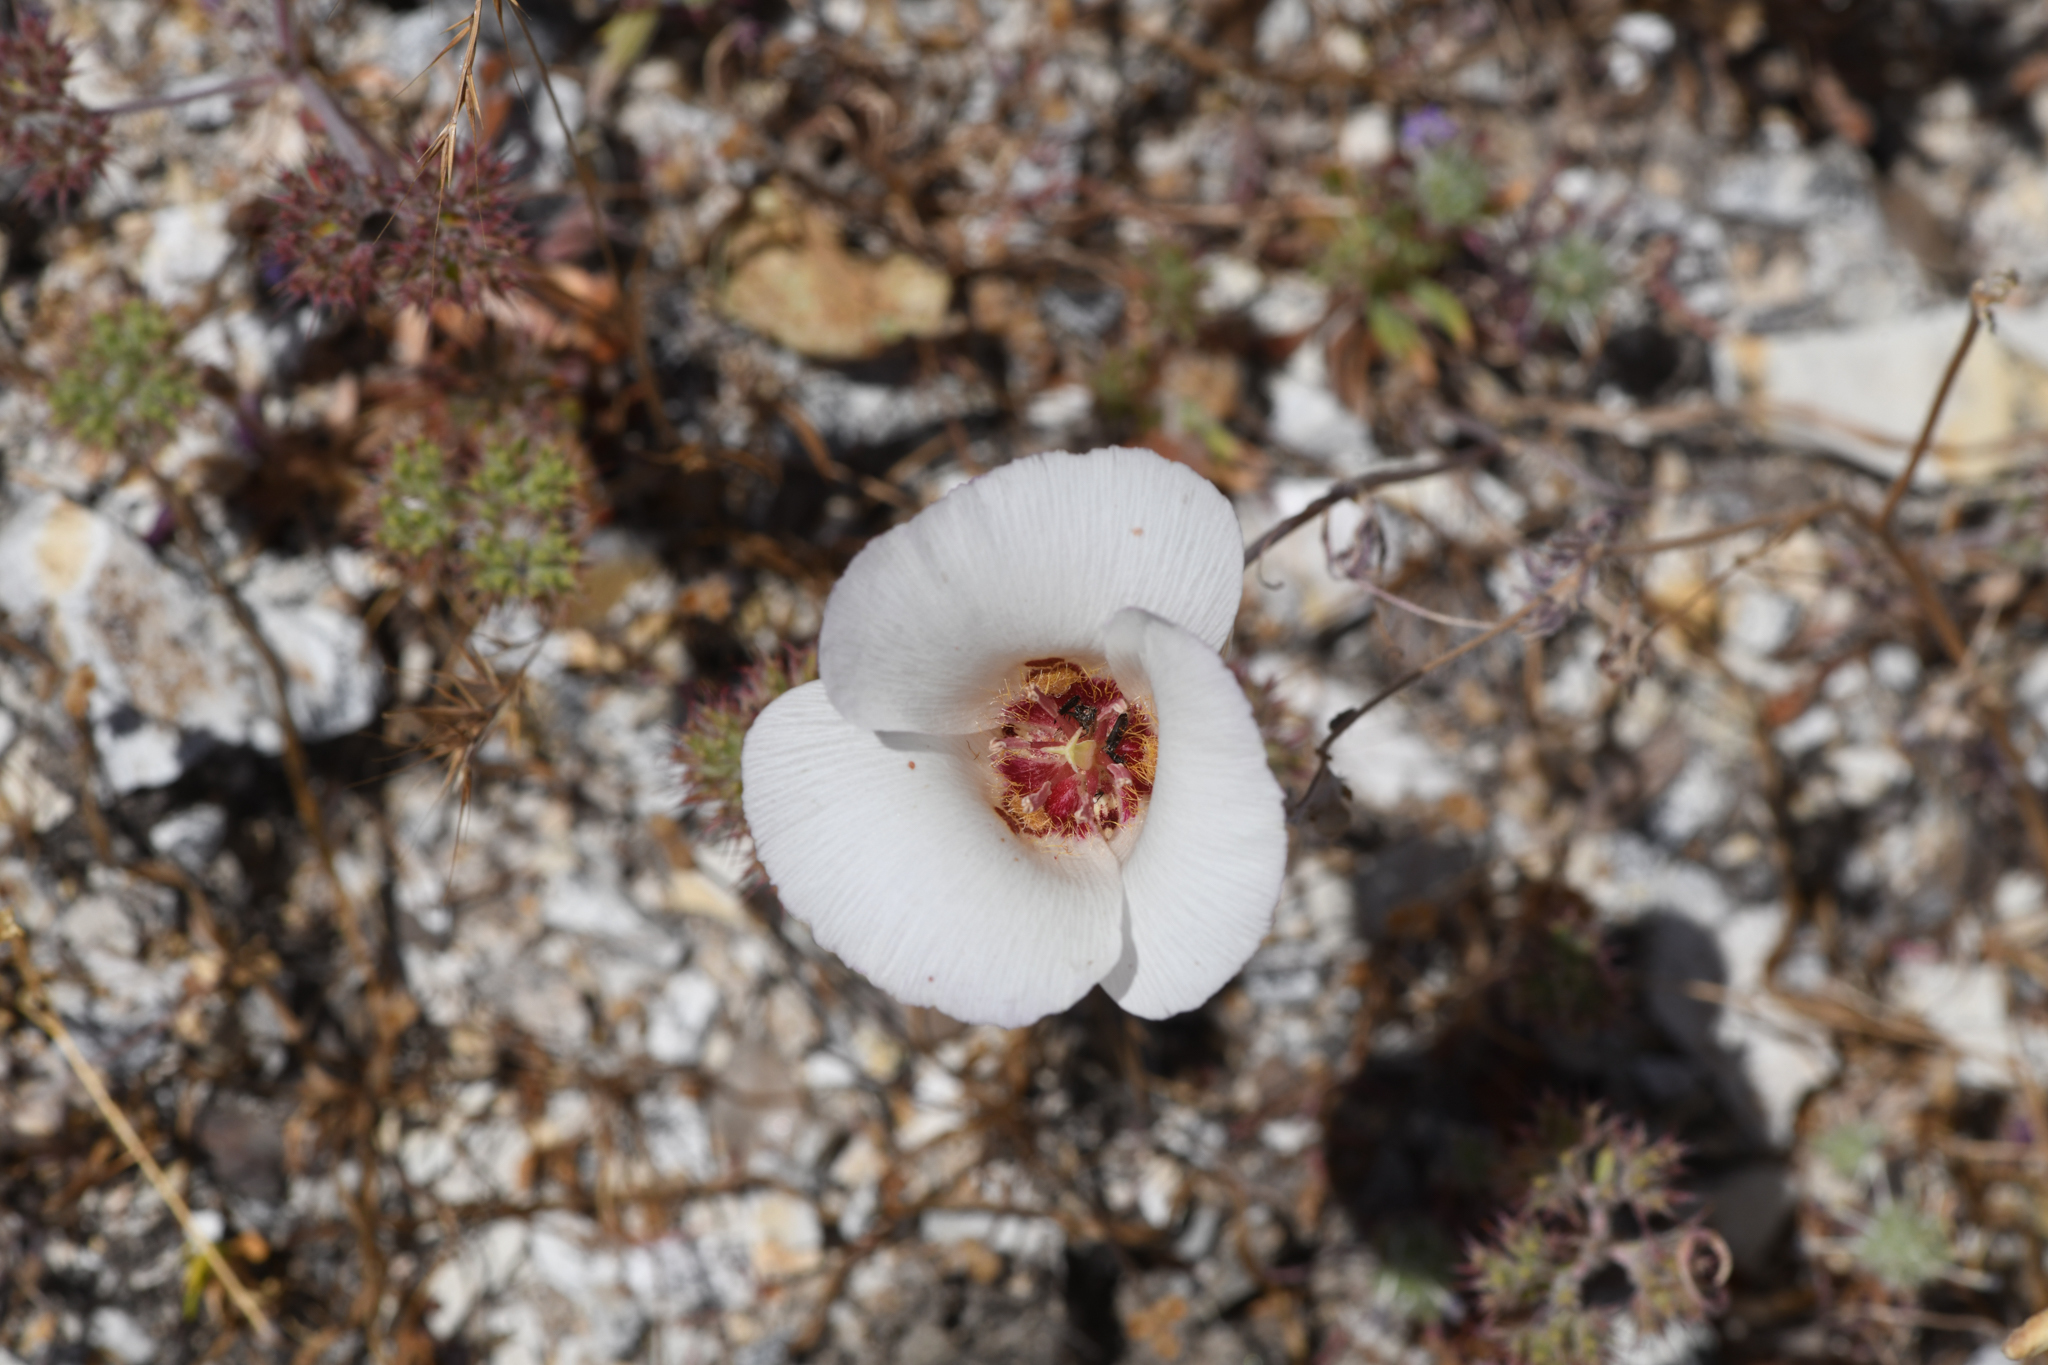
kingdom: Plantae
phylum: Tracheophyta
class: Liliopsida
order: Liliales
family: Liliaceae
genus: Calochortus
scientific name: Calochortus simulans
